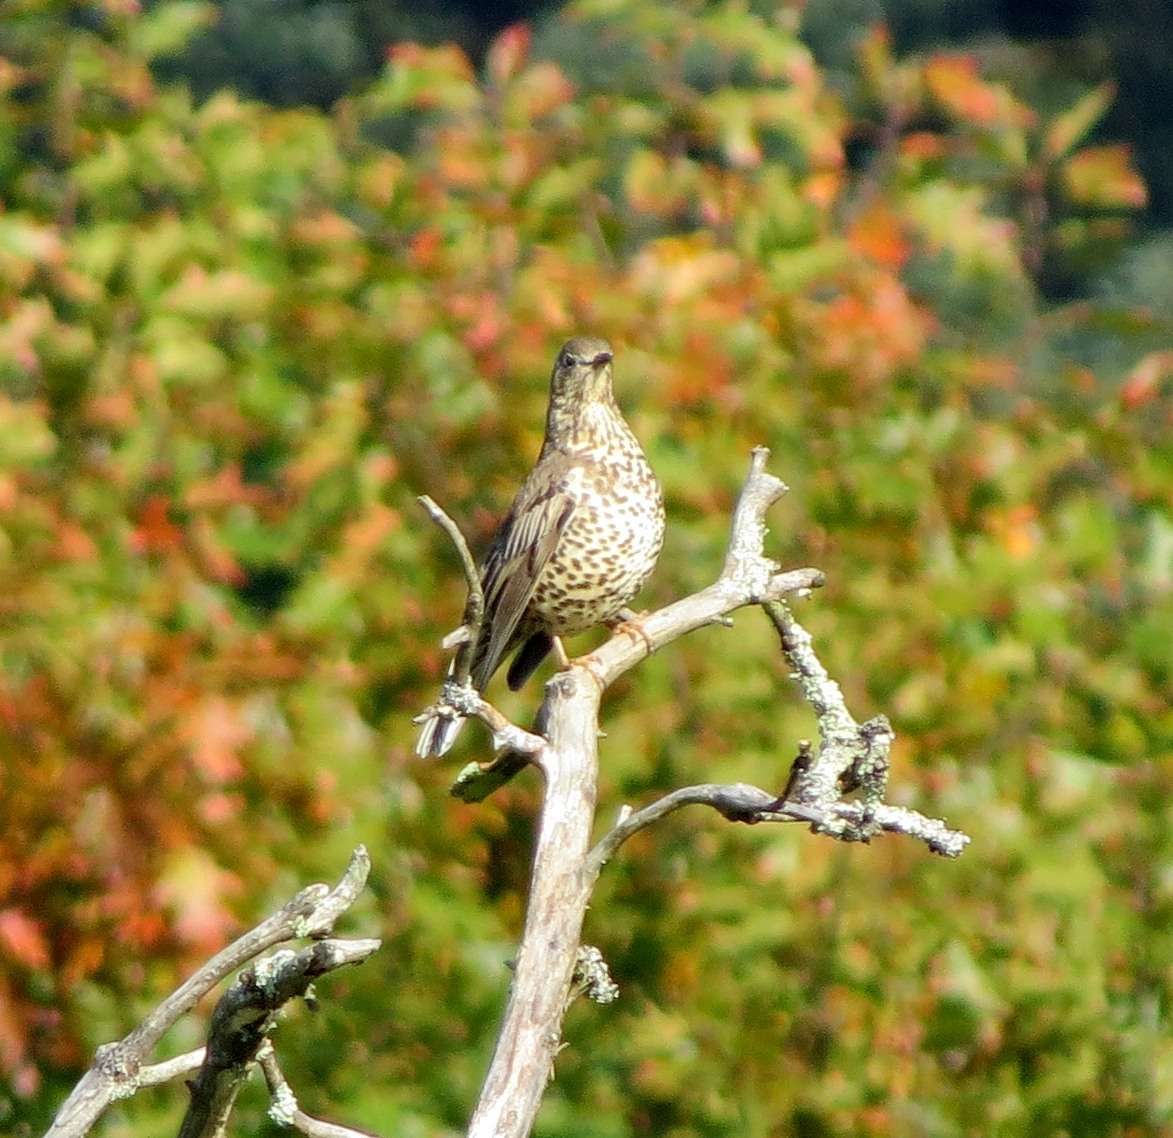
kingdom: Animalia
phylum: Chordata
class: Aves
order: Passeriformes
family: Turdidae
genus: Turdus
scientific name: Turdus viscivorus
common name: Mistle thrush
